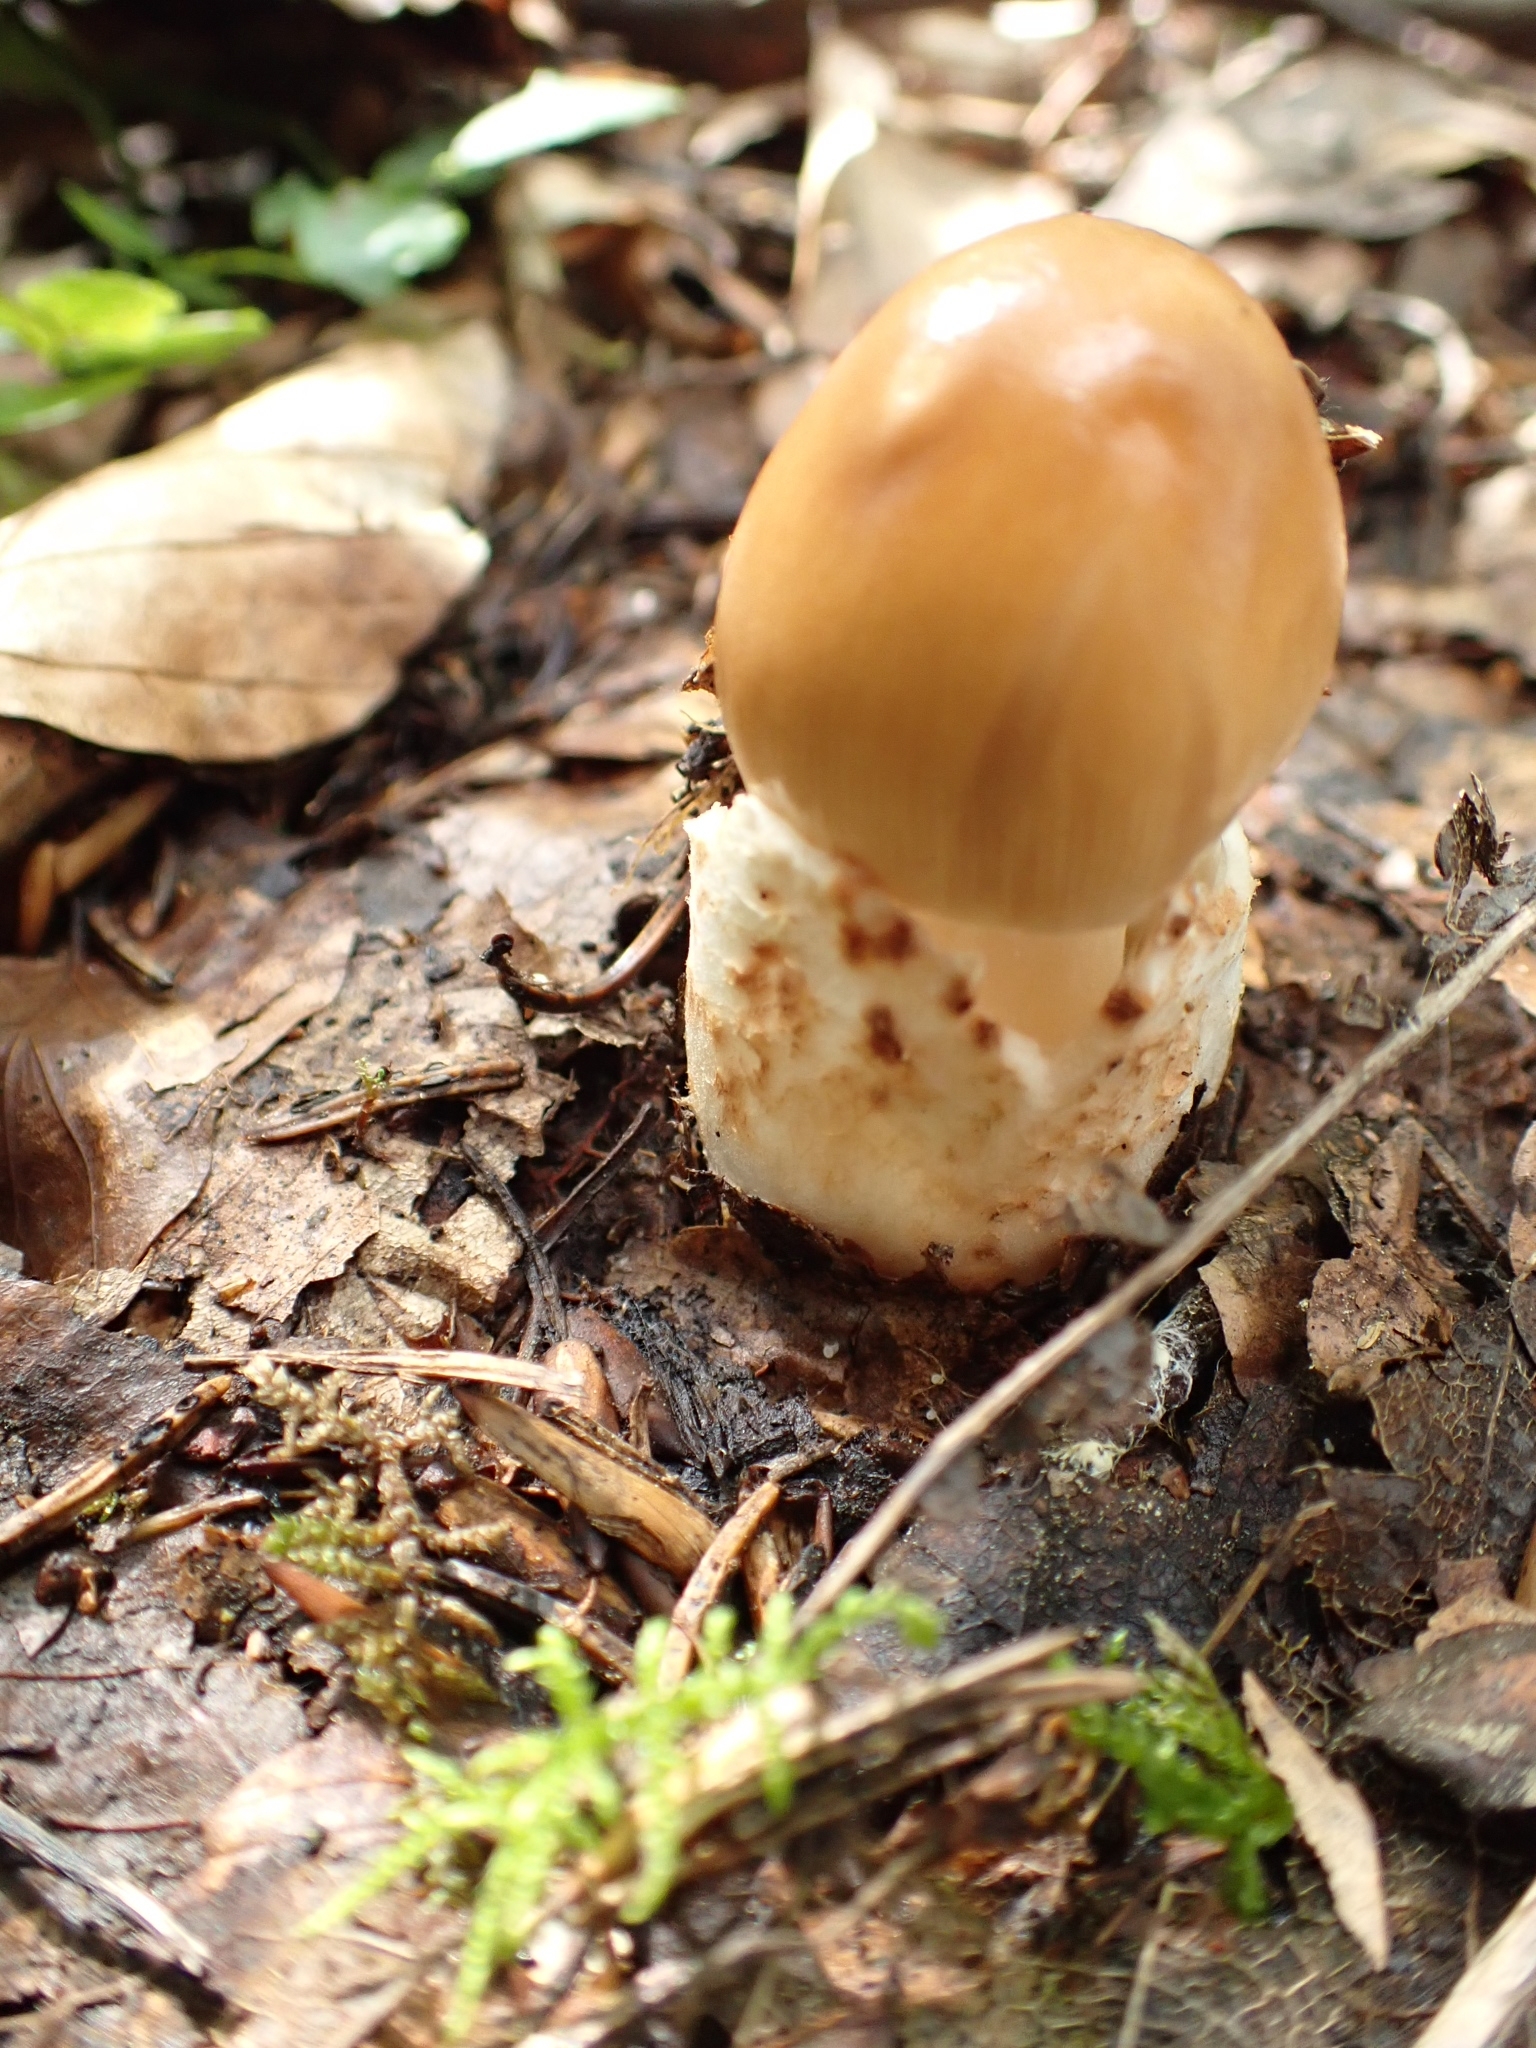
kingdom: Fungi
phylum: Basidiomycota
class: Agaricomycetes
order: Agaricales
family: Amanitaceae
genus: Amanita
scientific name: Amanita fulva
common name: Tawny grisette
